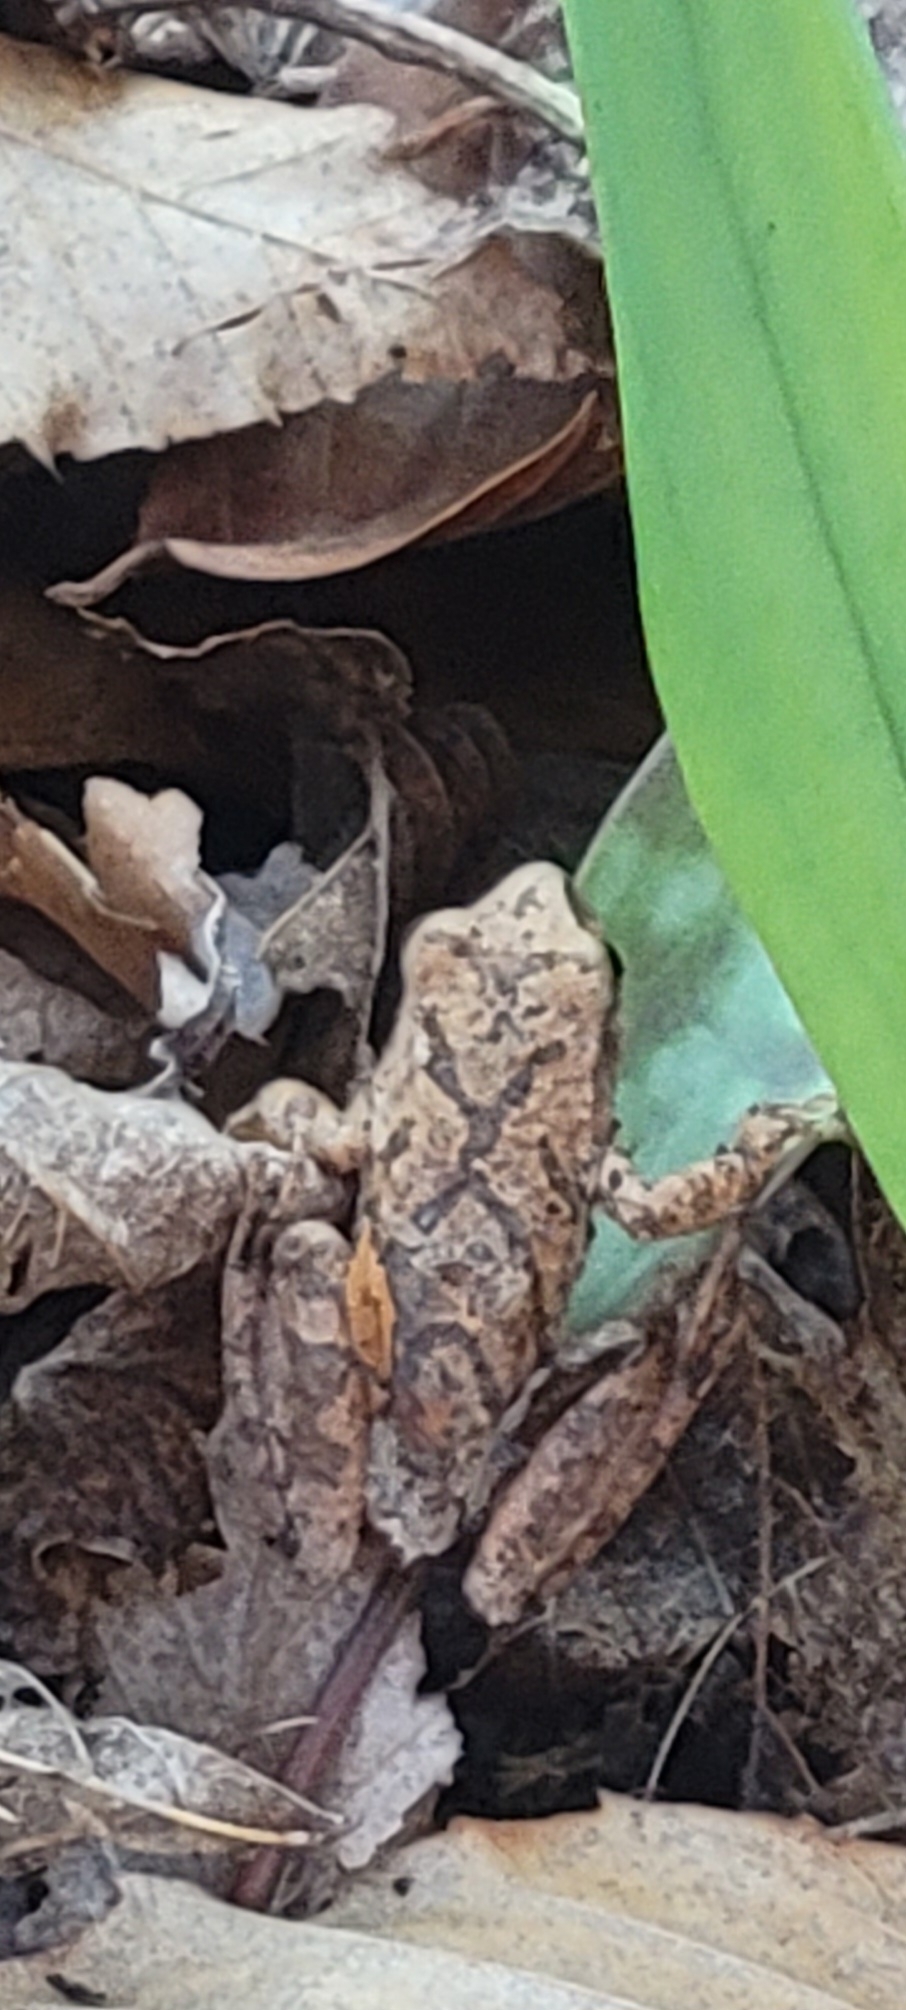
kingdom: Animalia
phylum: Chordata
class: Amphibia
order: Anura
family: Hylidae
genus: Pseudacris
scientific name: Pseudacris crucifer
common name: Spring peeper
